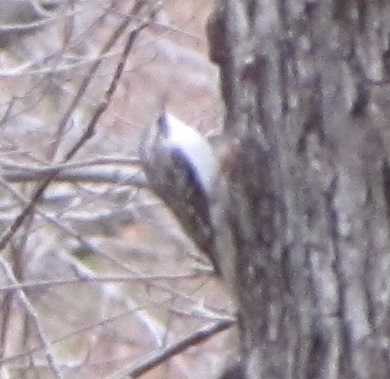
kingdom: Animalia
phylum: Chordata
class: Aves
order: Passeriformes
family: Certhiidae
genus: Certhia
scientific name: Certhia americana
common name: Brown creeper
